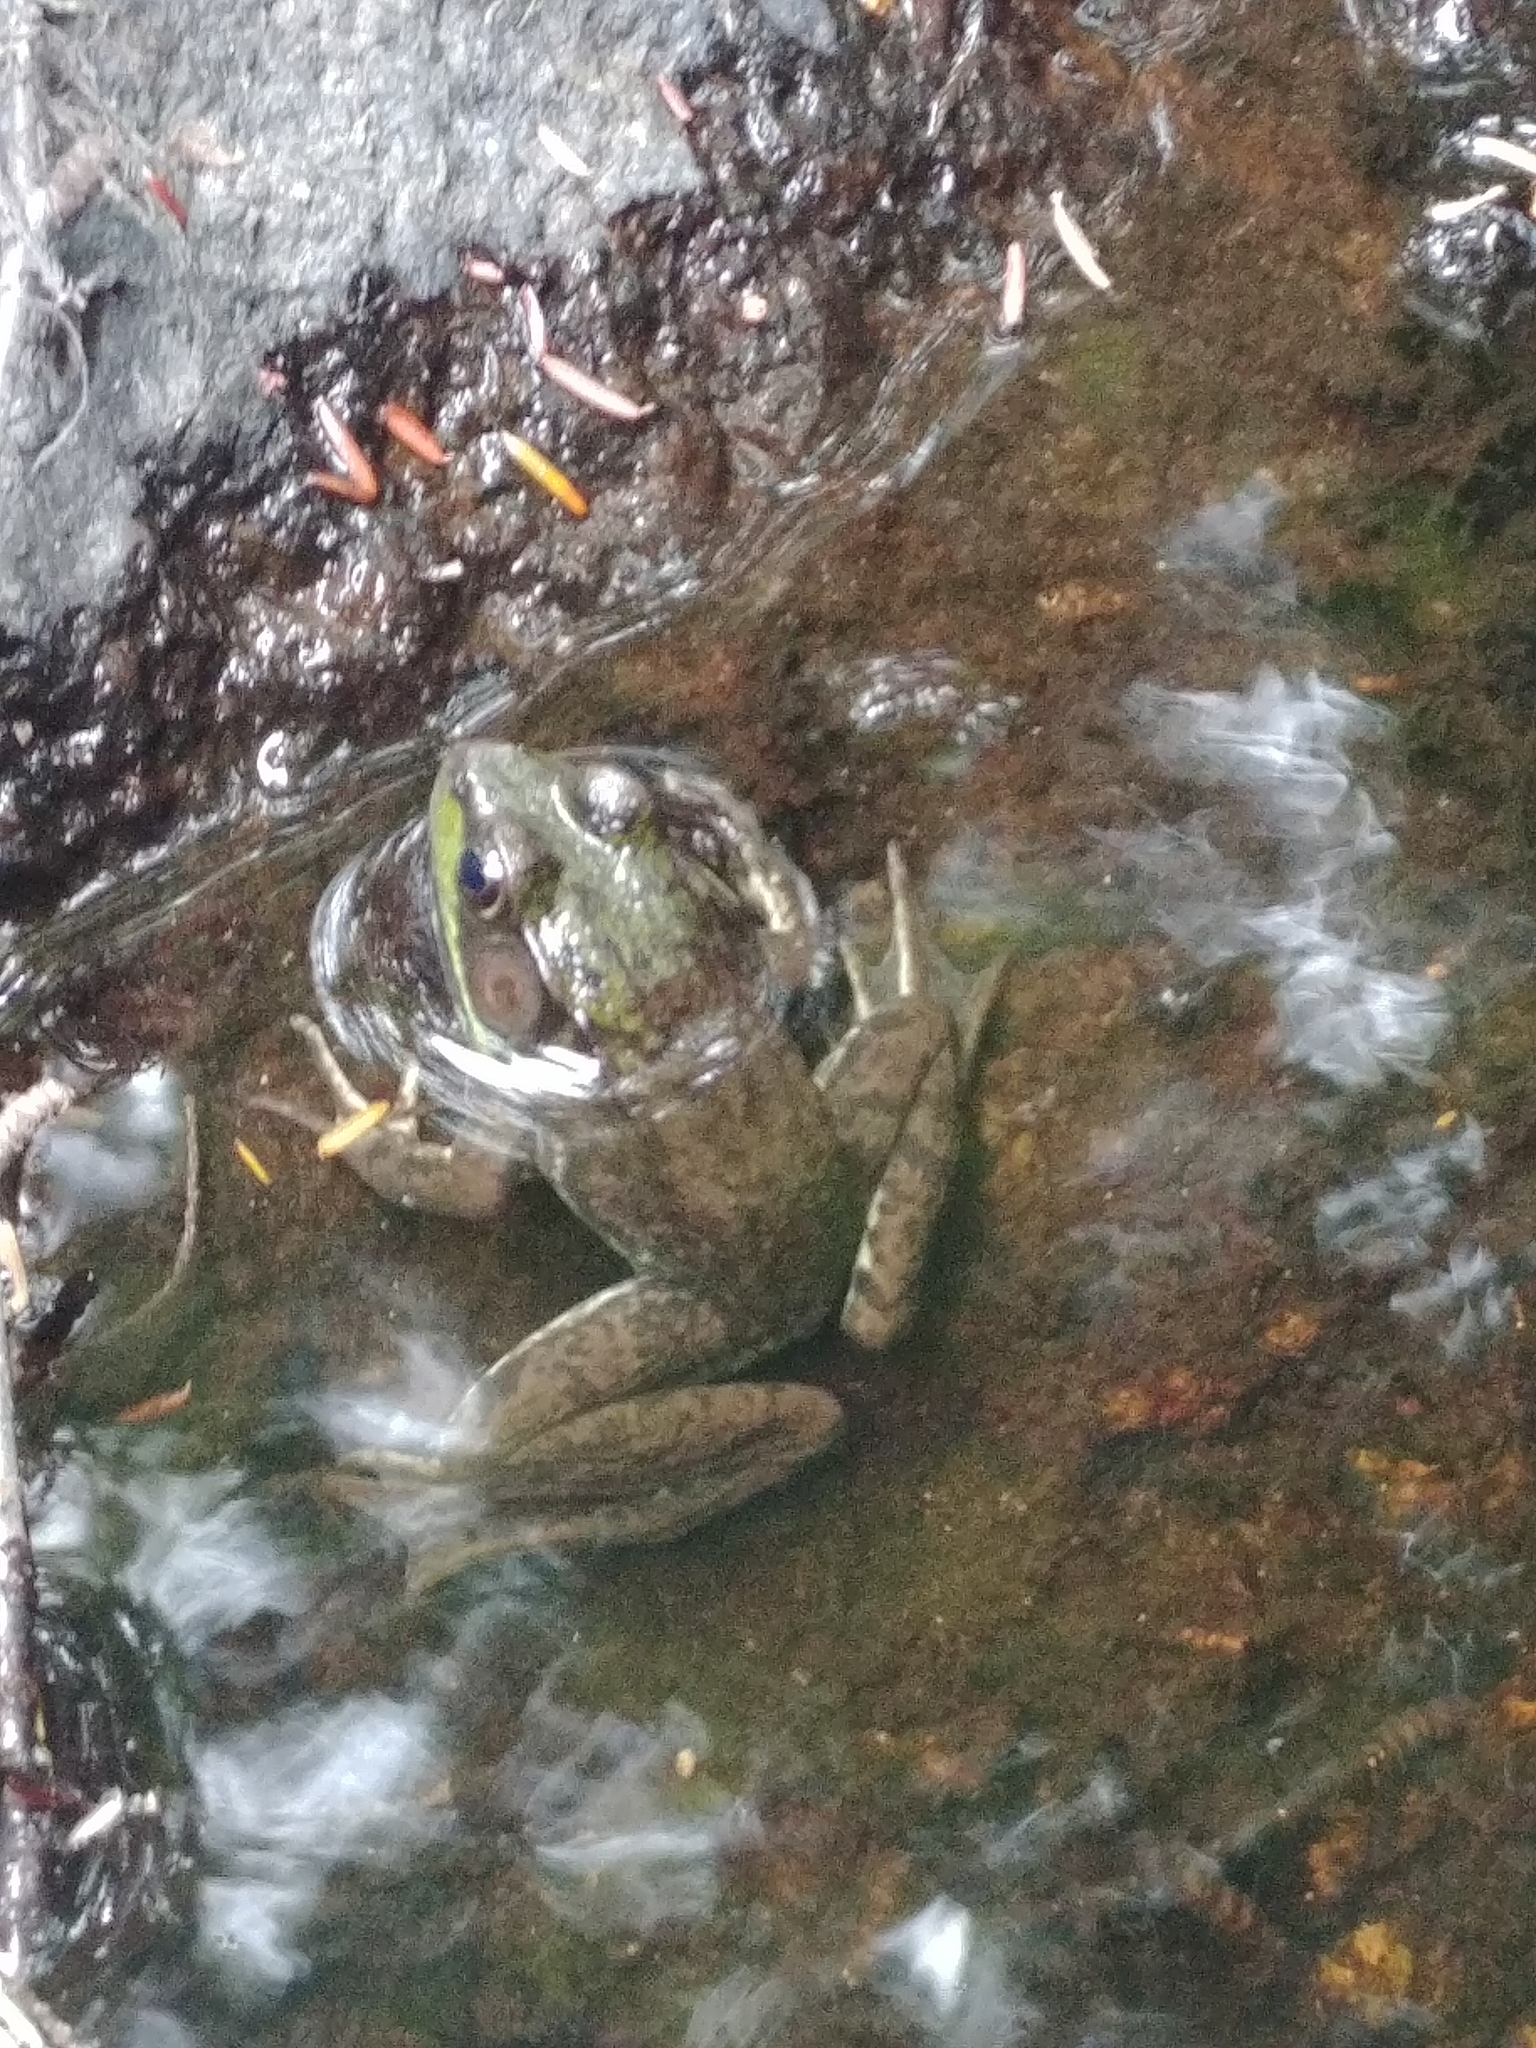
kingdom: Animalia
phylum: Chordata
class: Amphibia
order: Anura
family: Ranidae
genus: Lithobates
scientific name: Lithobates clamitans
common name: Green frog
